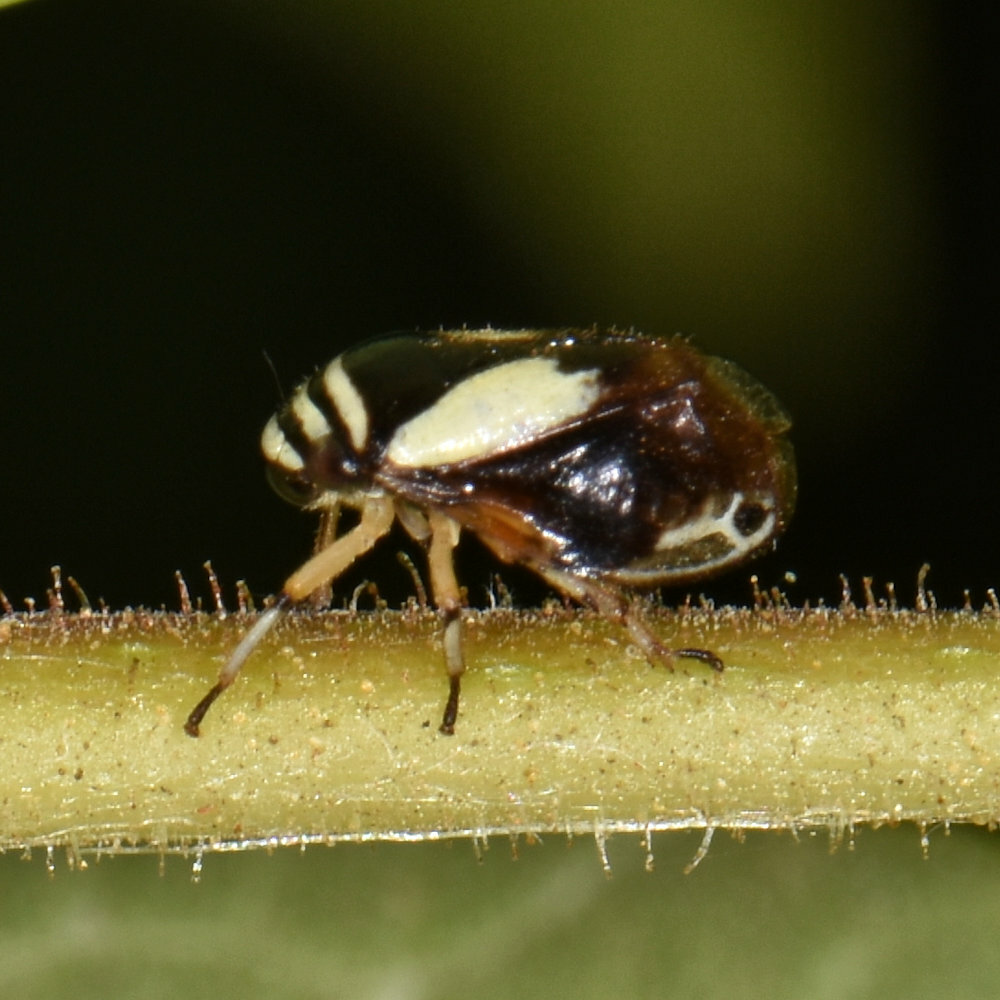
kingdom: Animalia
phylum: Arthropoda
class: Insecta
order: Hemiptera
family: Clastopteridae
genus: Clastoptera
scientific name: Clastoptera proteus
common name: Dogwood spittlebug
